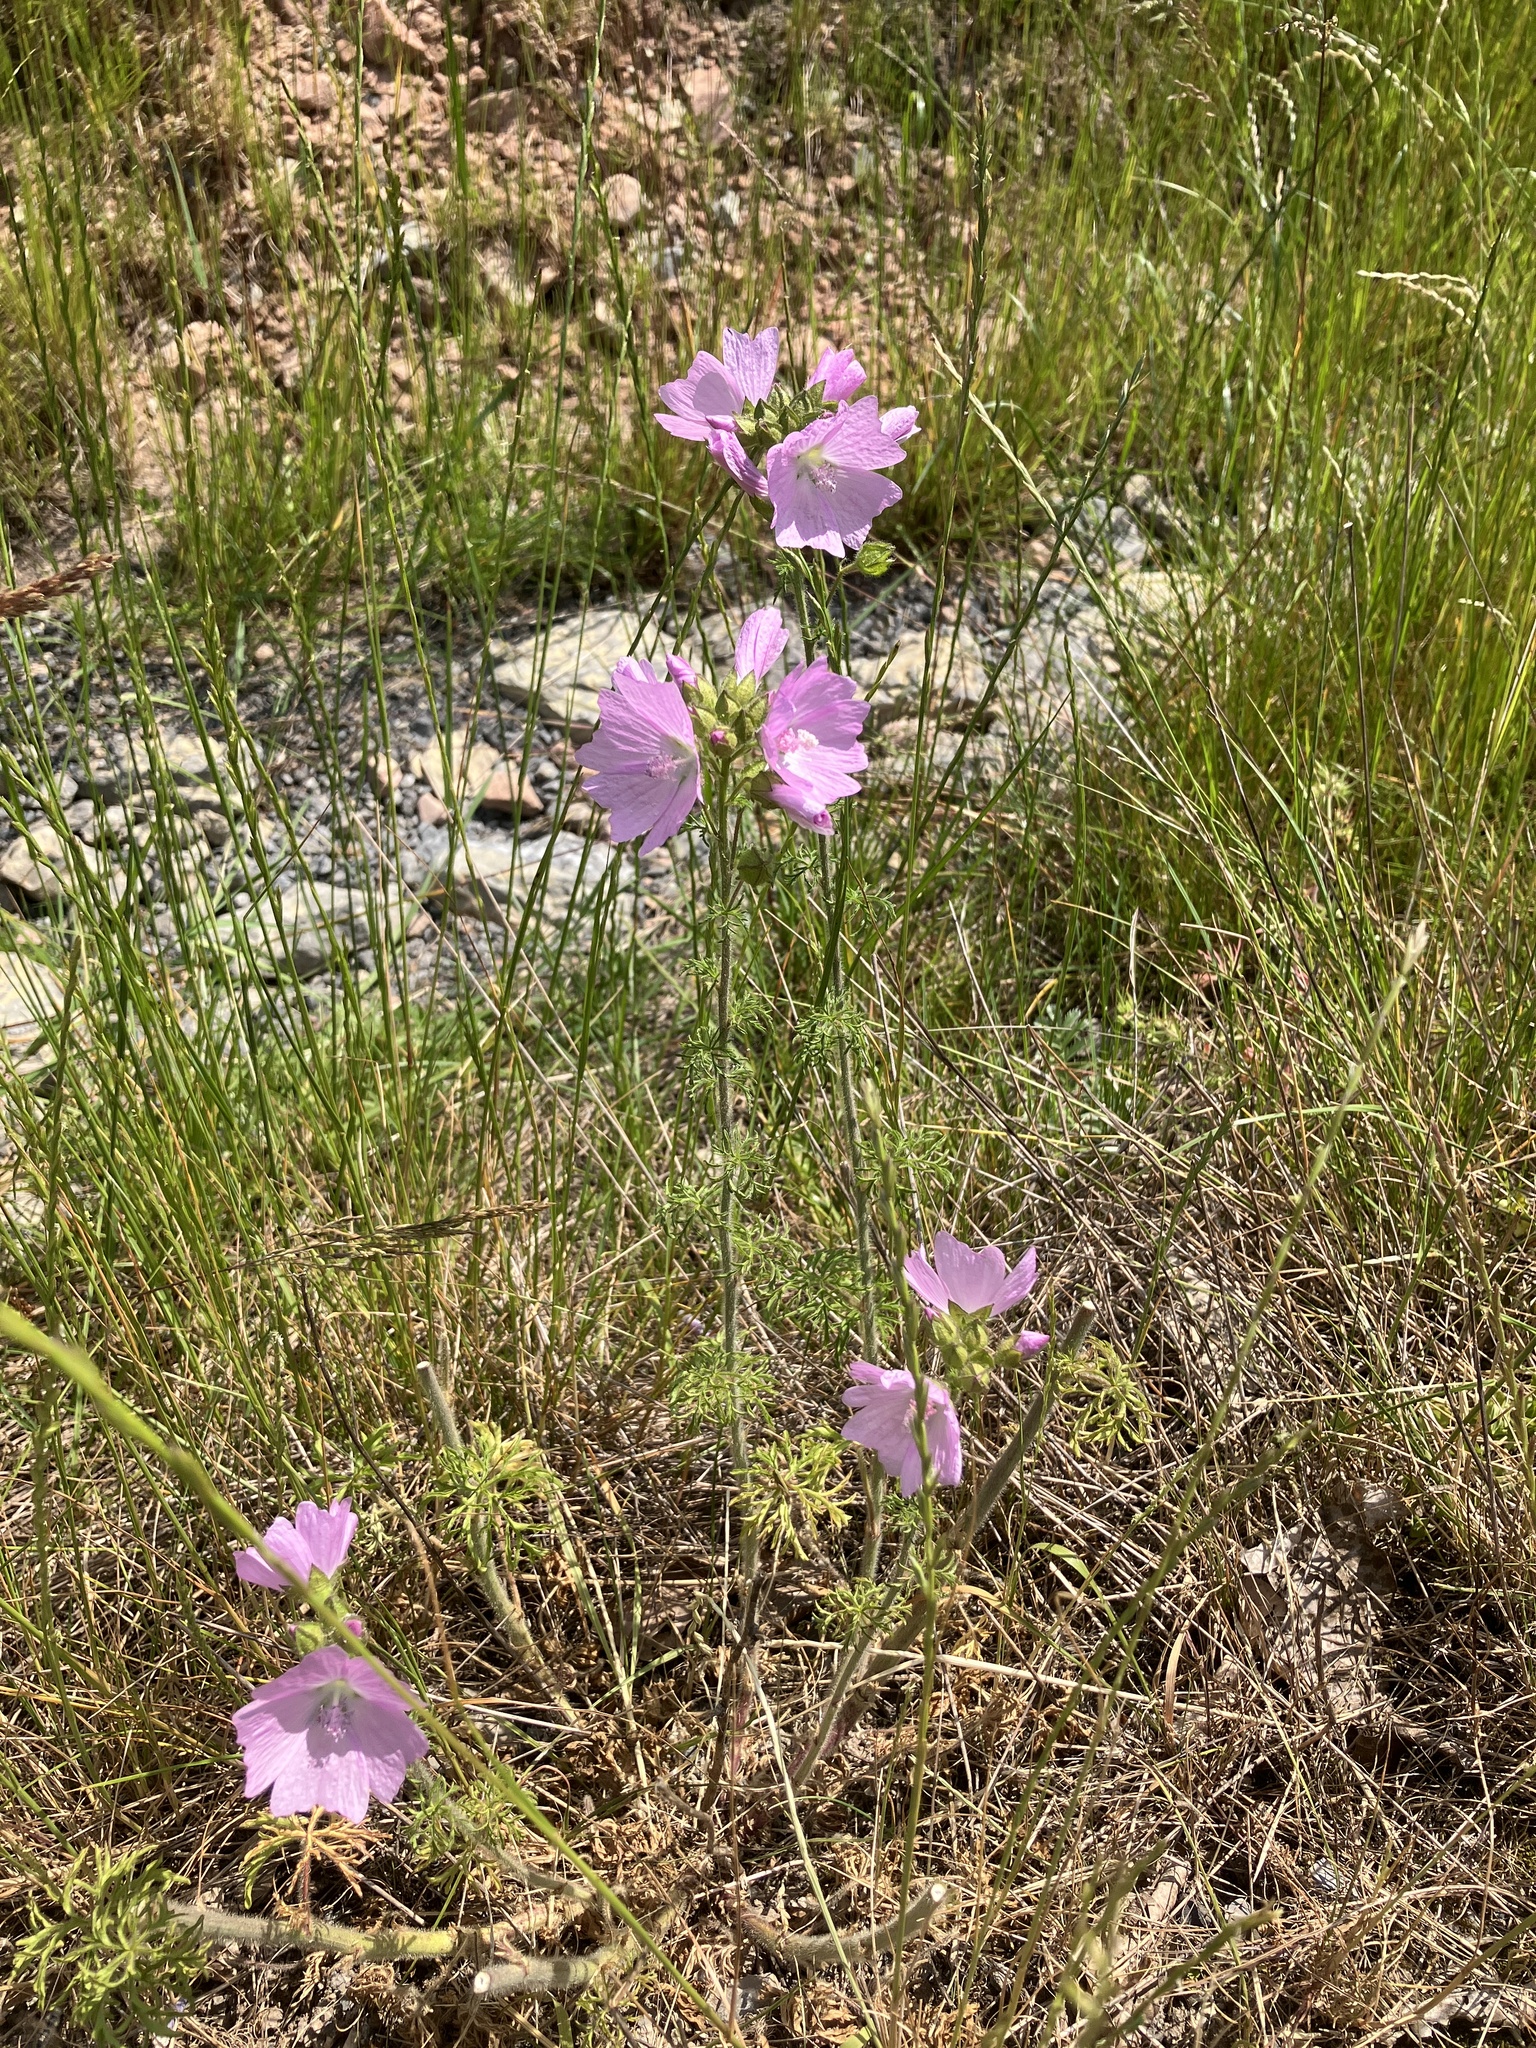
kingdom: Plantae
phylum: Tracheophyta
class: Magnoliopsida
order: Malvales
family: Malvaceae
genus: Malva
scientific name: Malva moschata
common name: Musk mallow
